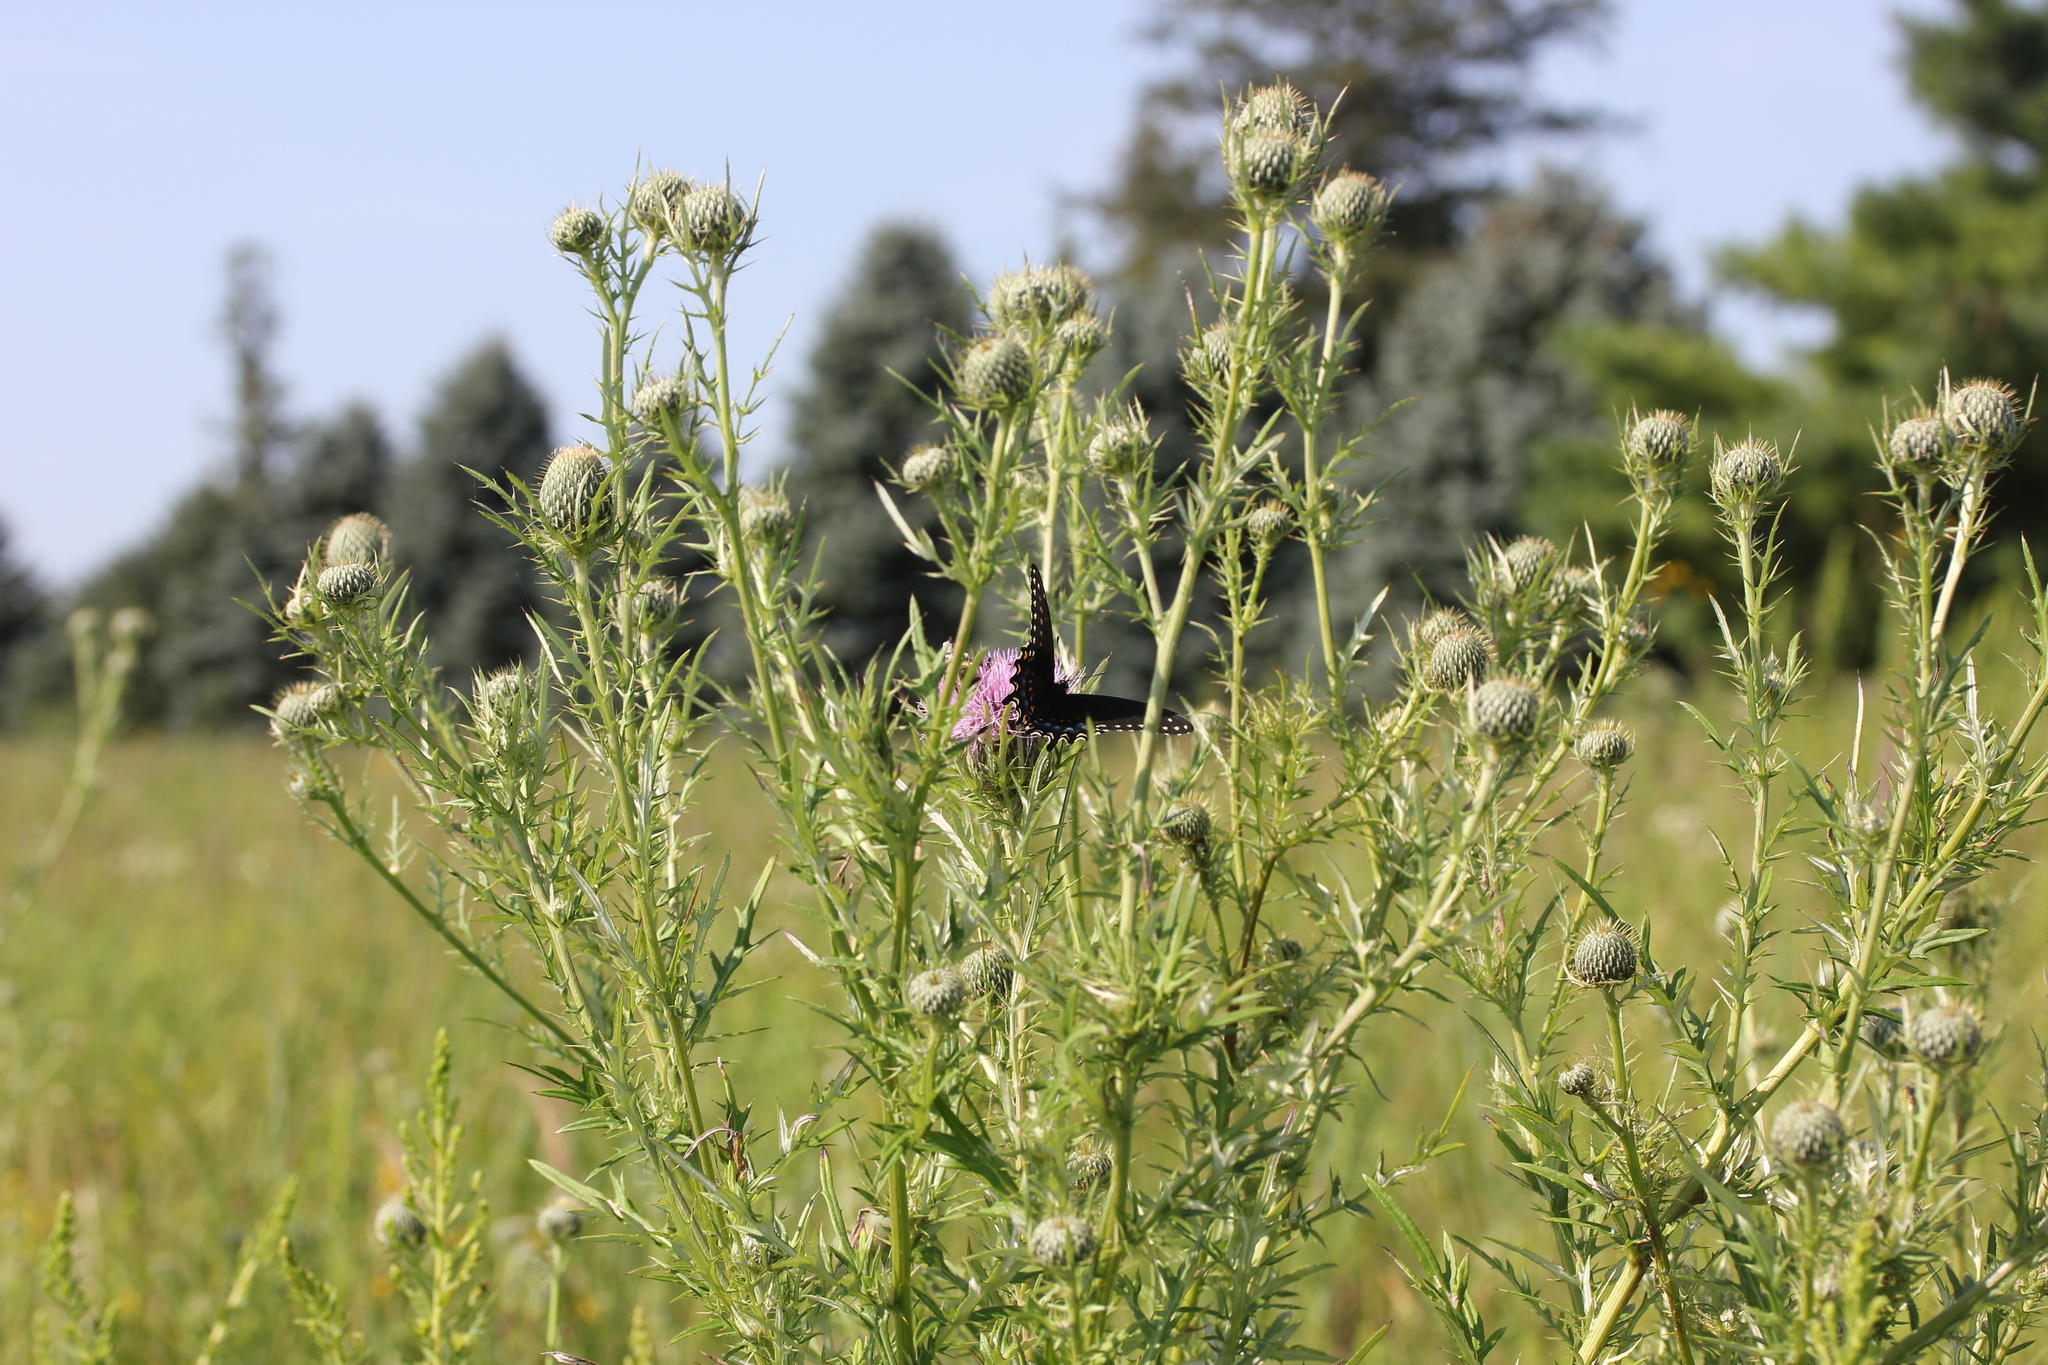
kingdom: Plantae
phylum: Tracheophyta
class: Magnoliopsida
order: Asterales
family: Asteraceae
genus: Cirsium
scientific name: Cirsium discolor
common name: Field thistle
